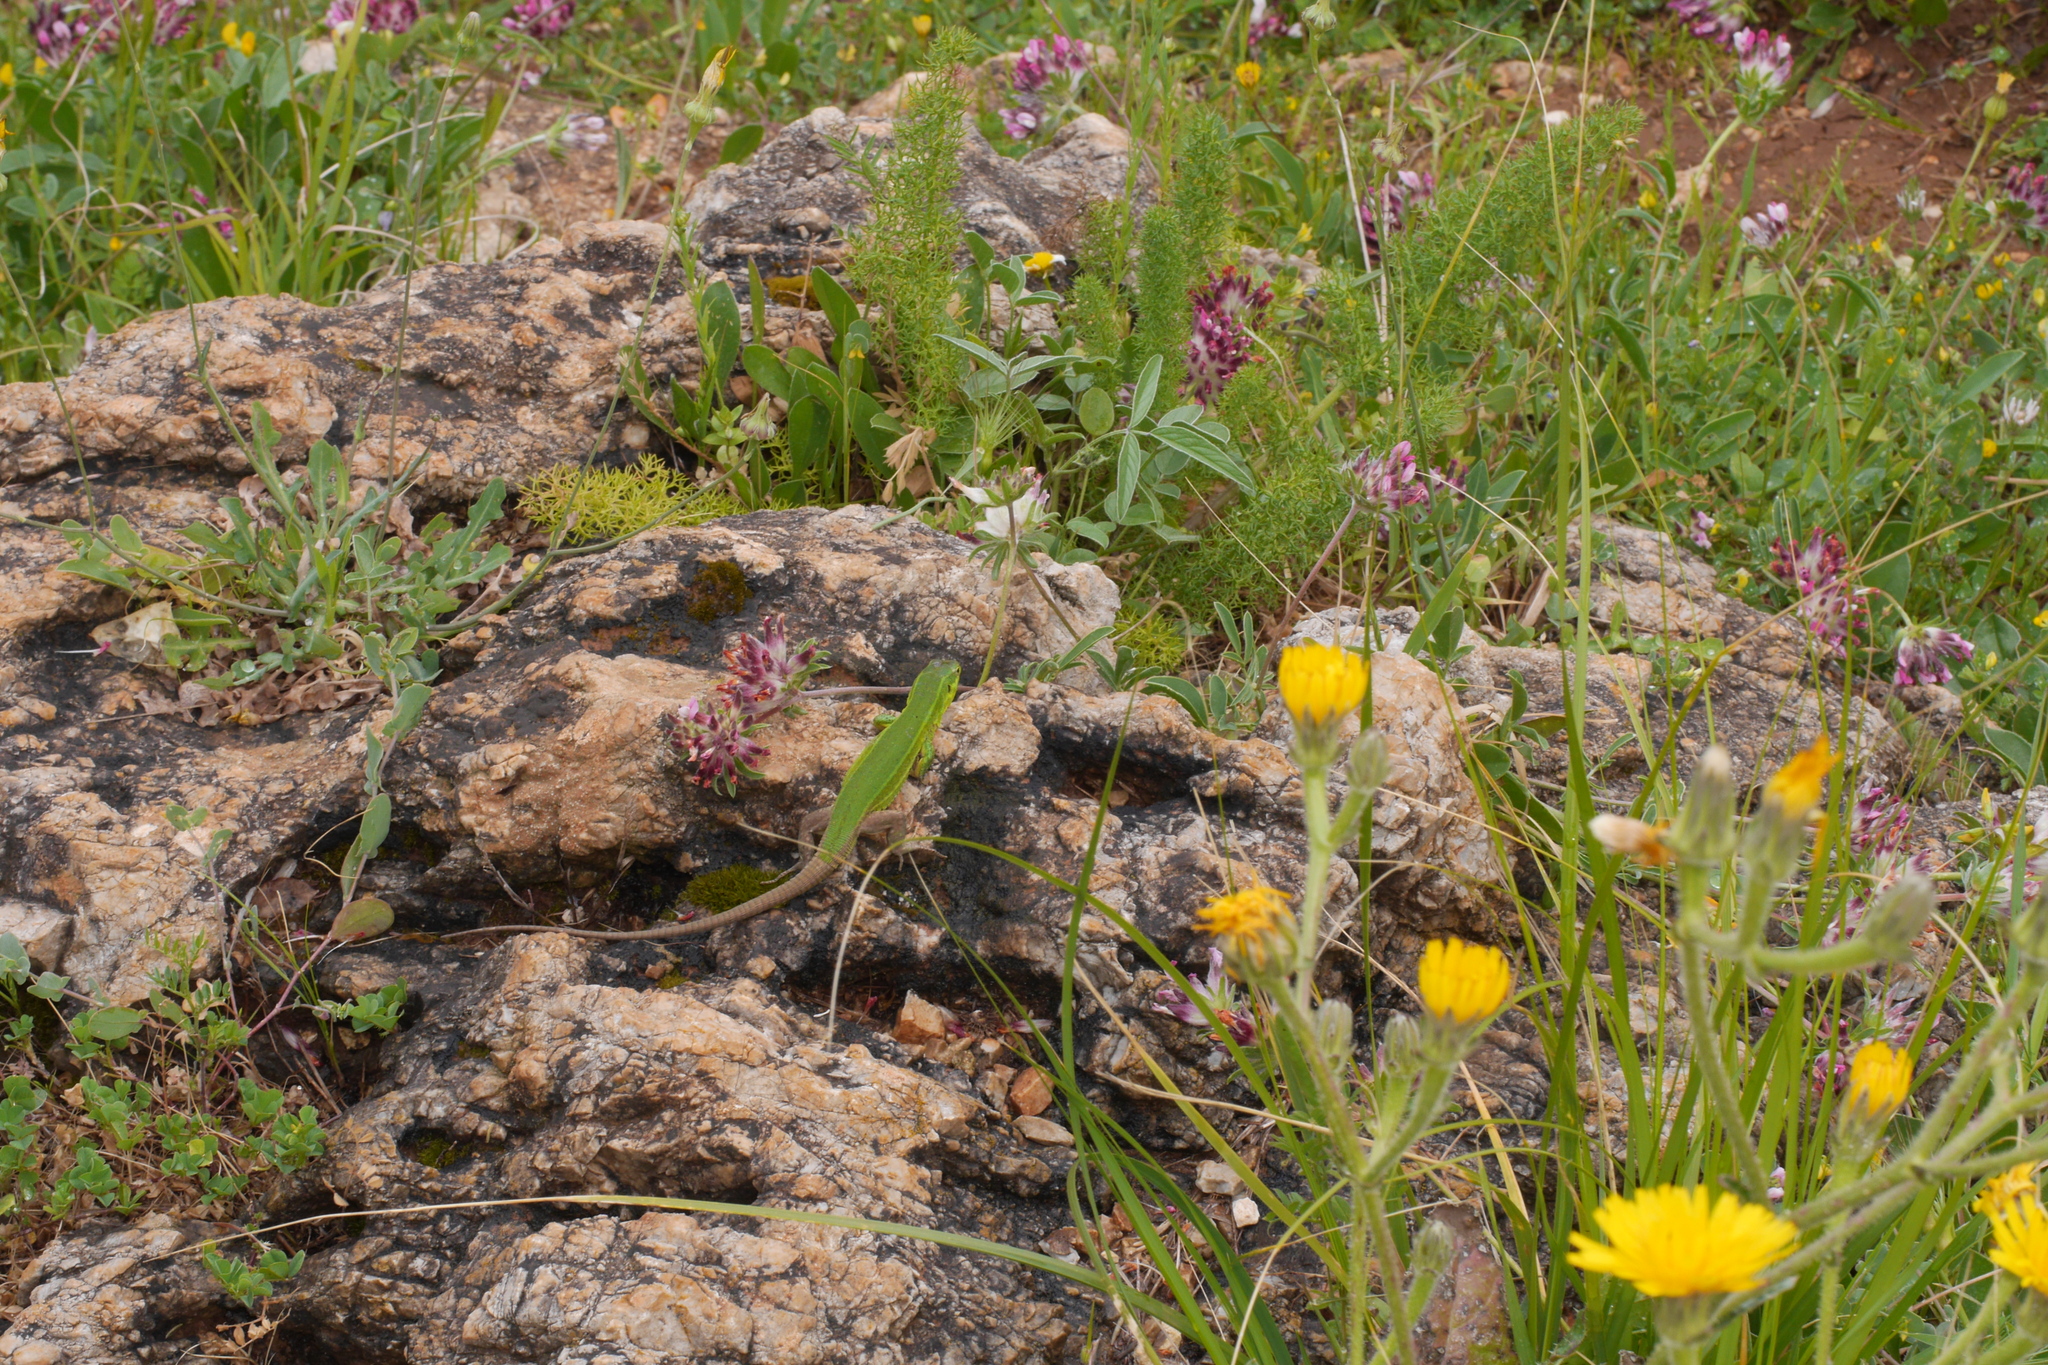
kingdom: Animalia
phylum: Chordata
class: Squamata
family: Lacertidae
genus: Podarcis
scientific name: Podarcis waglerianus
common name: Sicilian wall lizard
